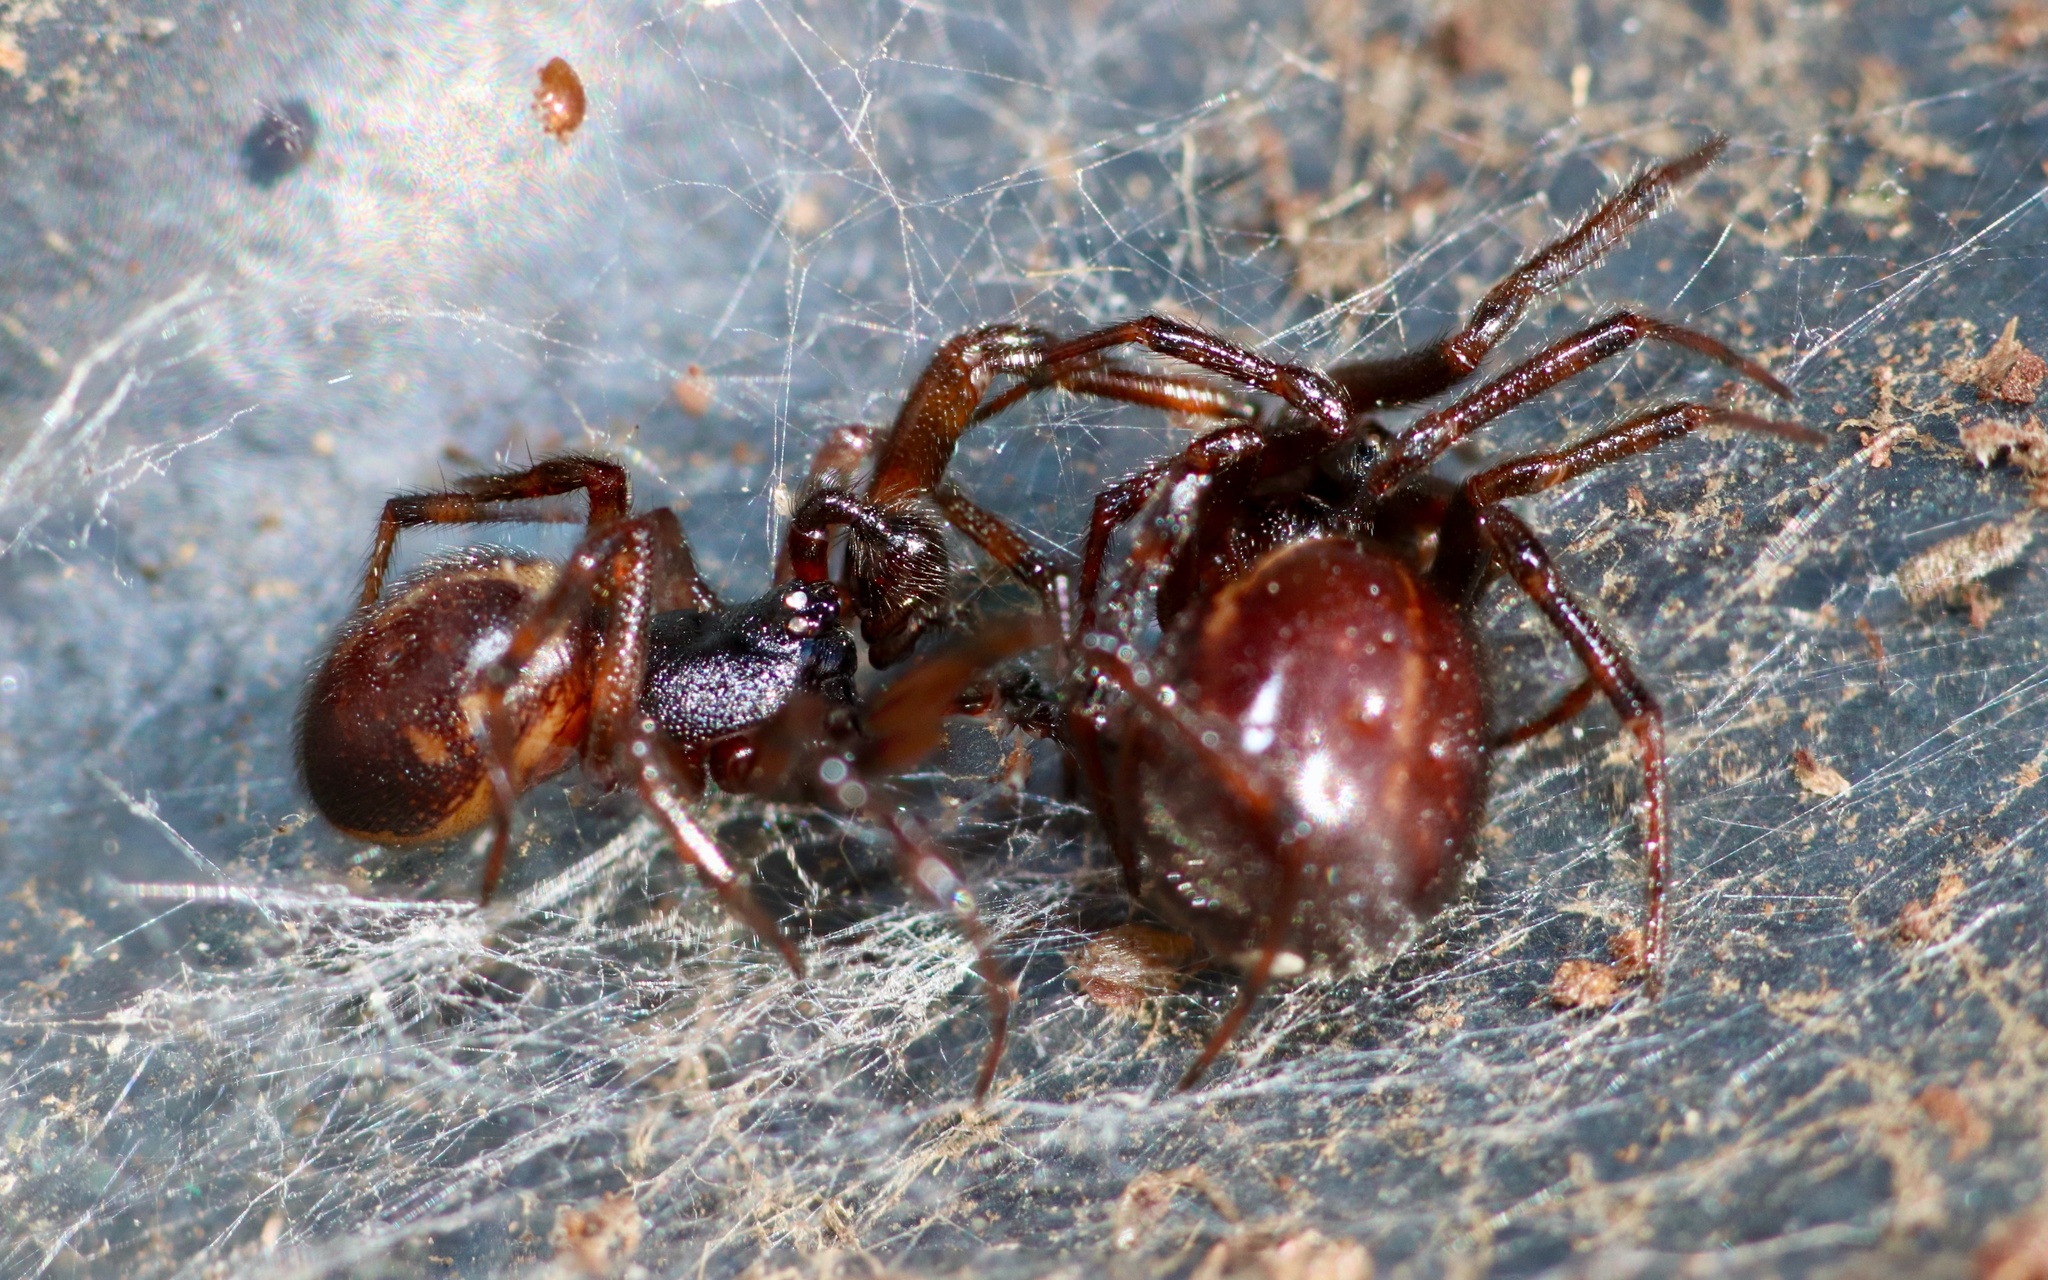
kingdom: Animalia
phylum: Arthropoda
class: Arachnida
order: Araneae
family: Theridiidae
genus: Steatoda
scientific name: Steatoda borealis
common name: Boreal combfoot
